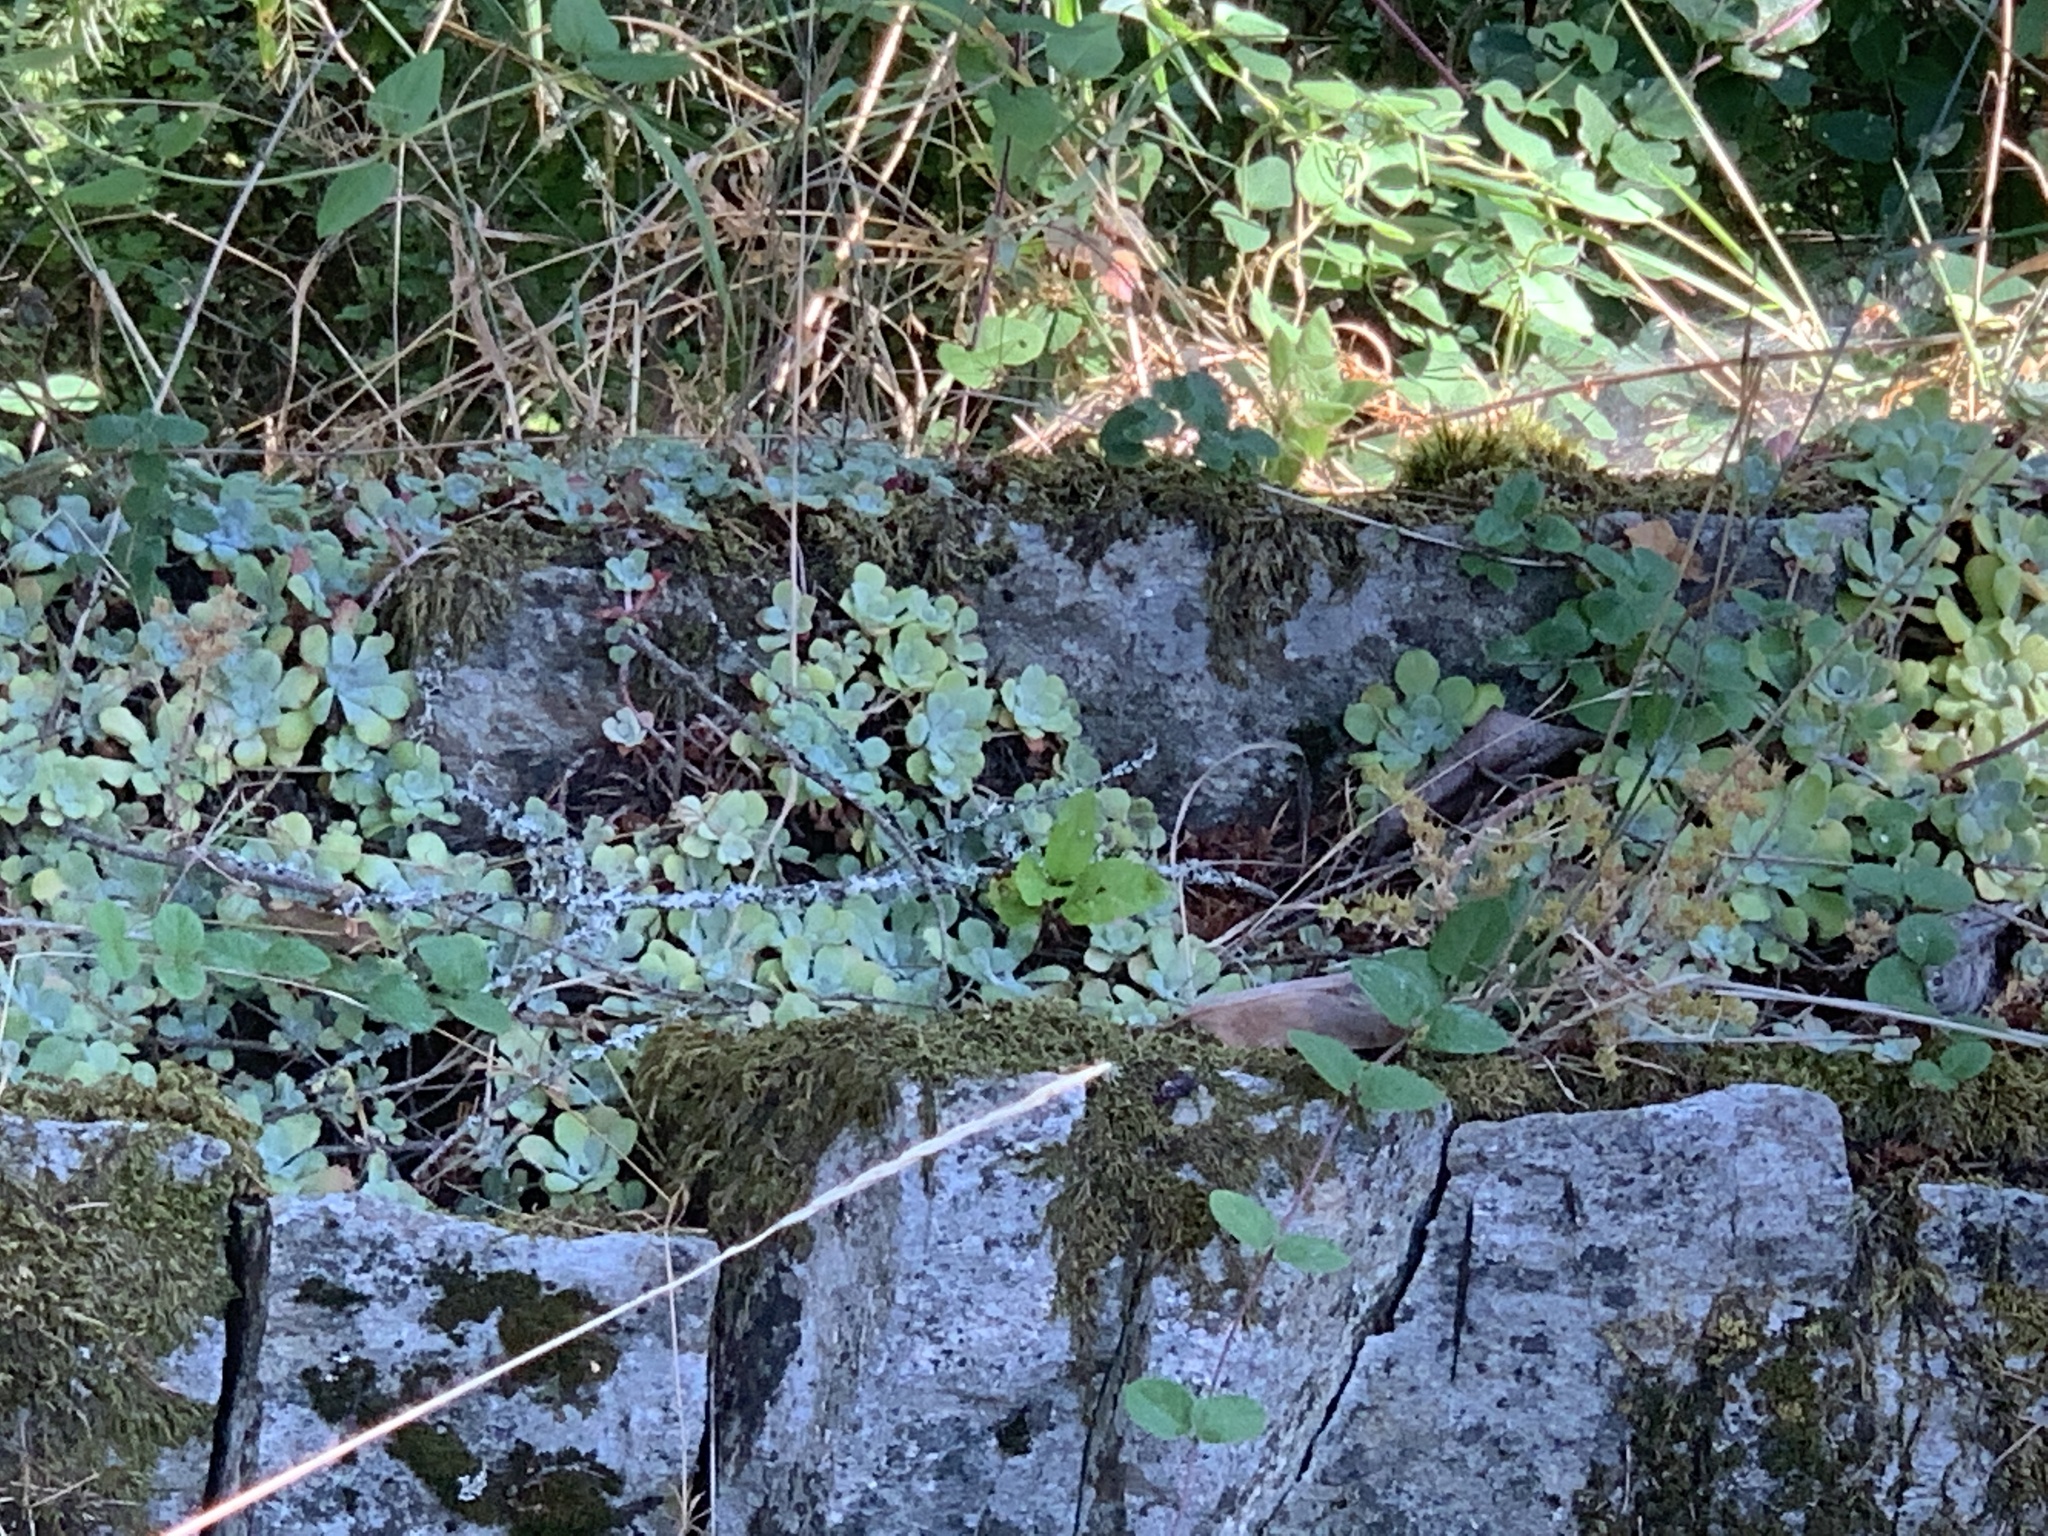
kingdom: Plantae
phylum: Tracheophyta
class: Magnoliopsida
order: Saxifragales
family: Crassulaceae
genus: Sedum
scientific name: Sedum spathulifolium
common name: Colorado stonecrop
